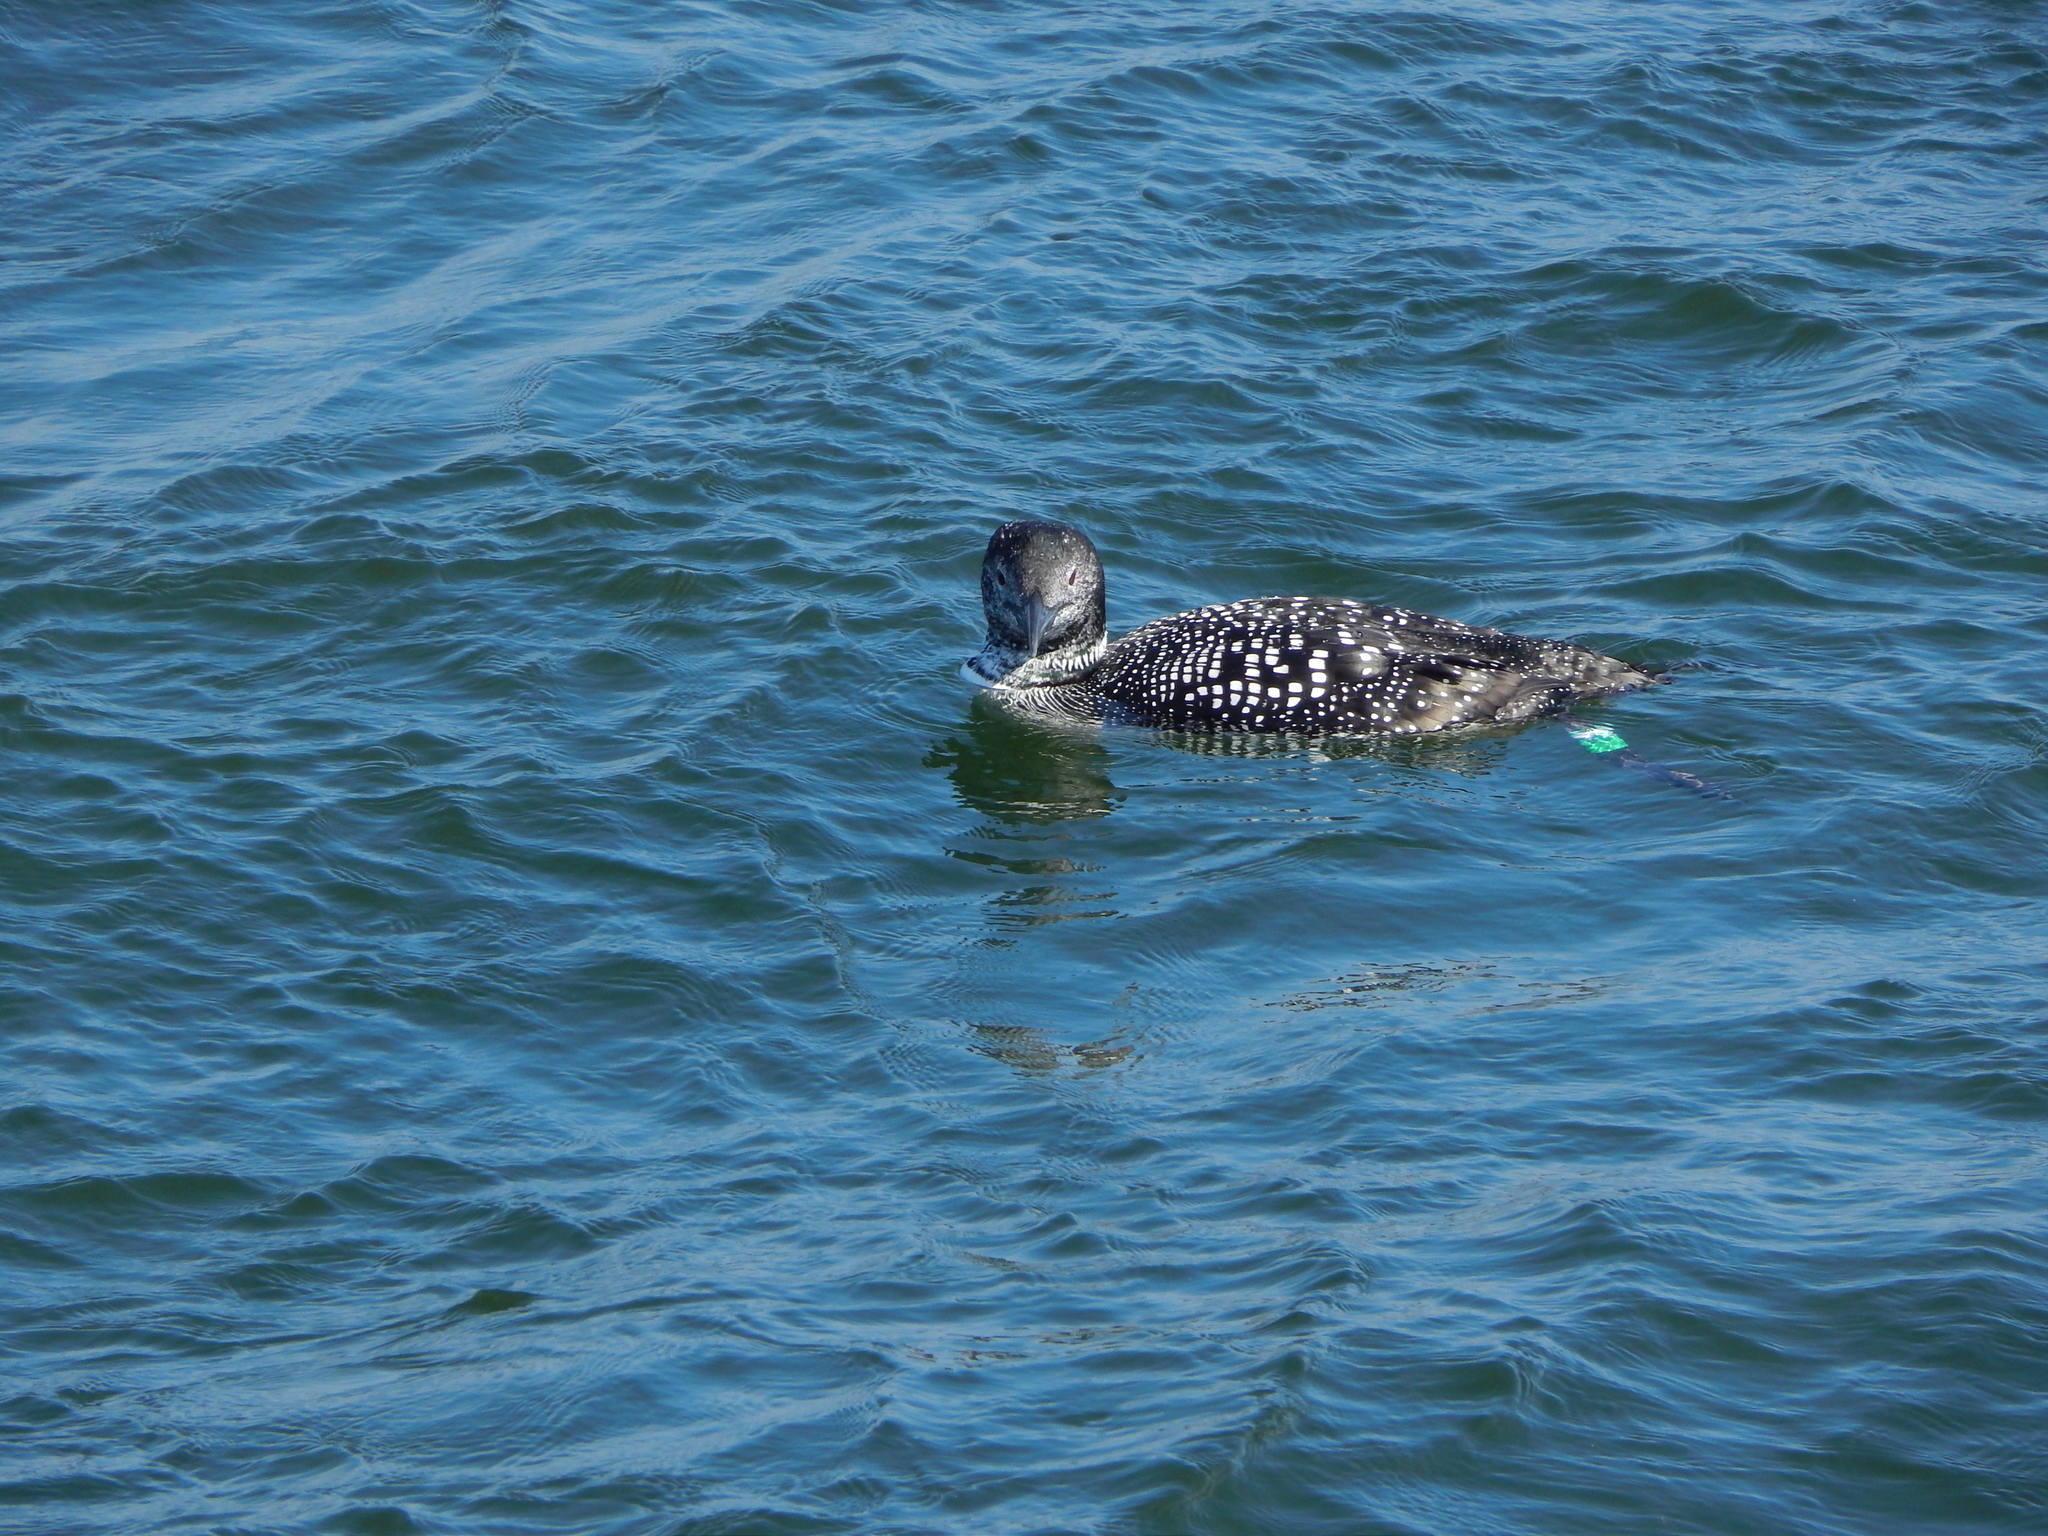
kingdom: Animalia
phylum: Chordata
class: Aves
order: Gaviiformes
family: Gaviidae
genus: Gavia
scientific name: Gavia immer
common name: Common loon
